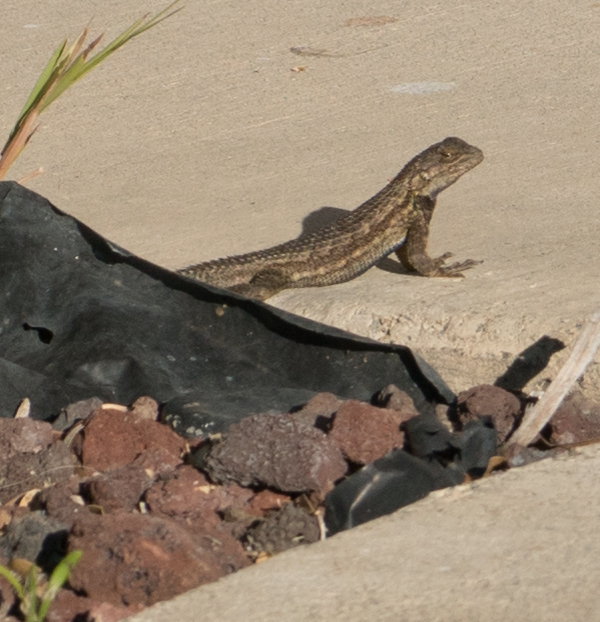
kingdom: Animalia
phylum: Chordata
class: Squamata
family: Phrynosomatidae
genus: Sceloporus
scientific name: Sceloporus occidentalis
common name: Western fence lizard
